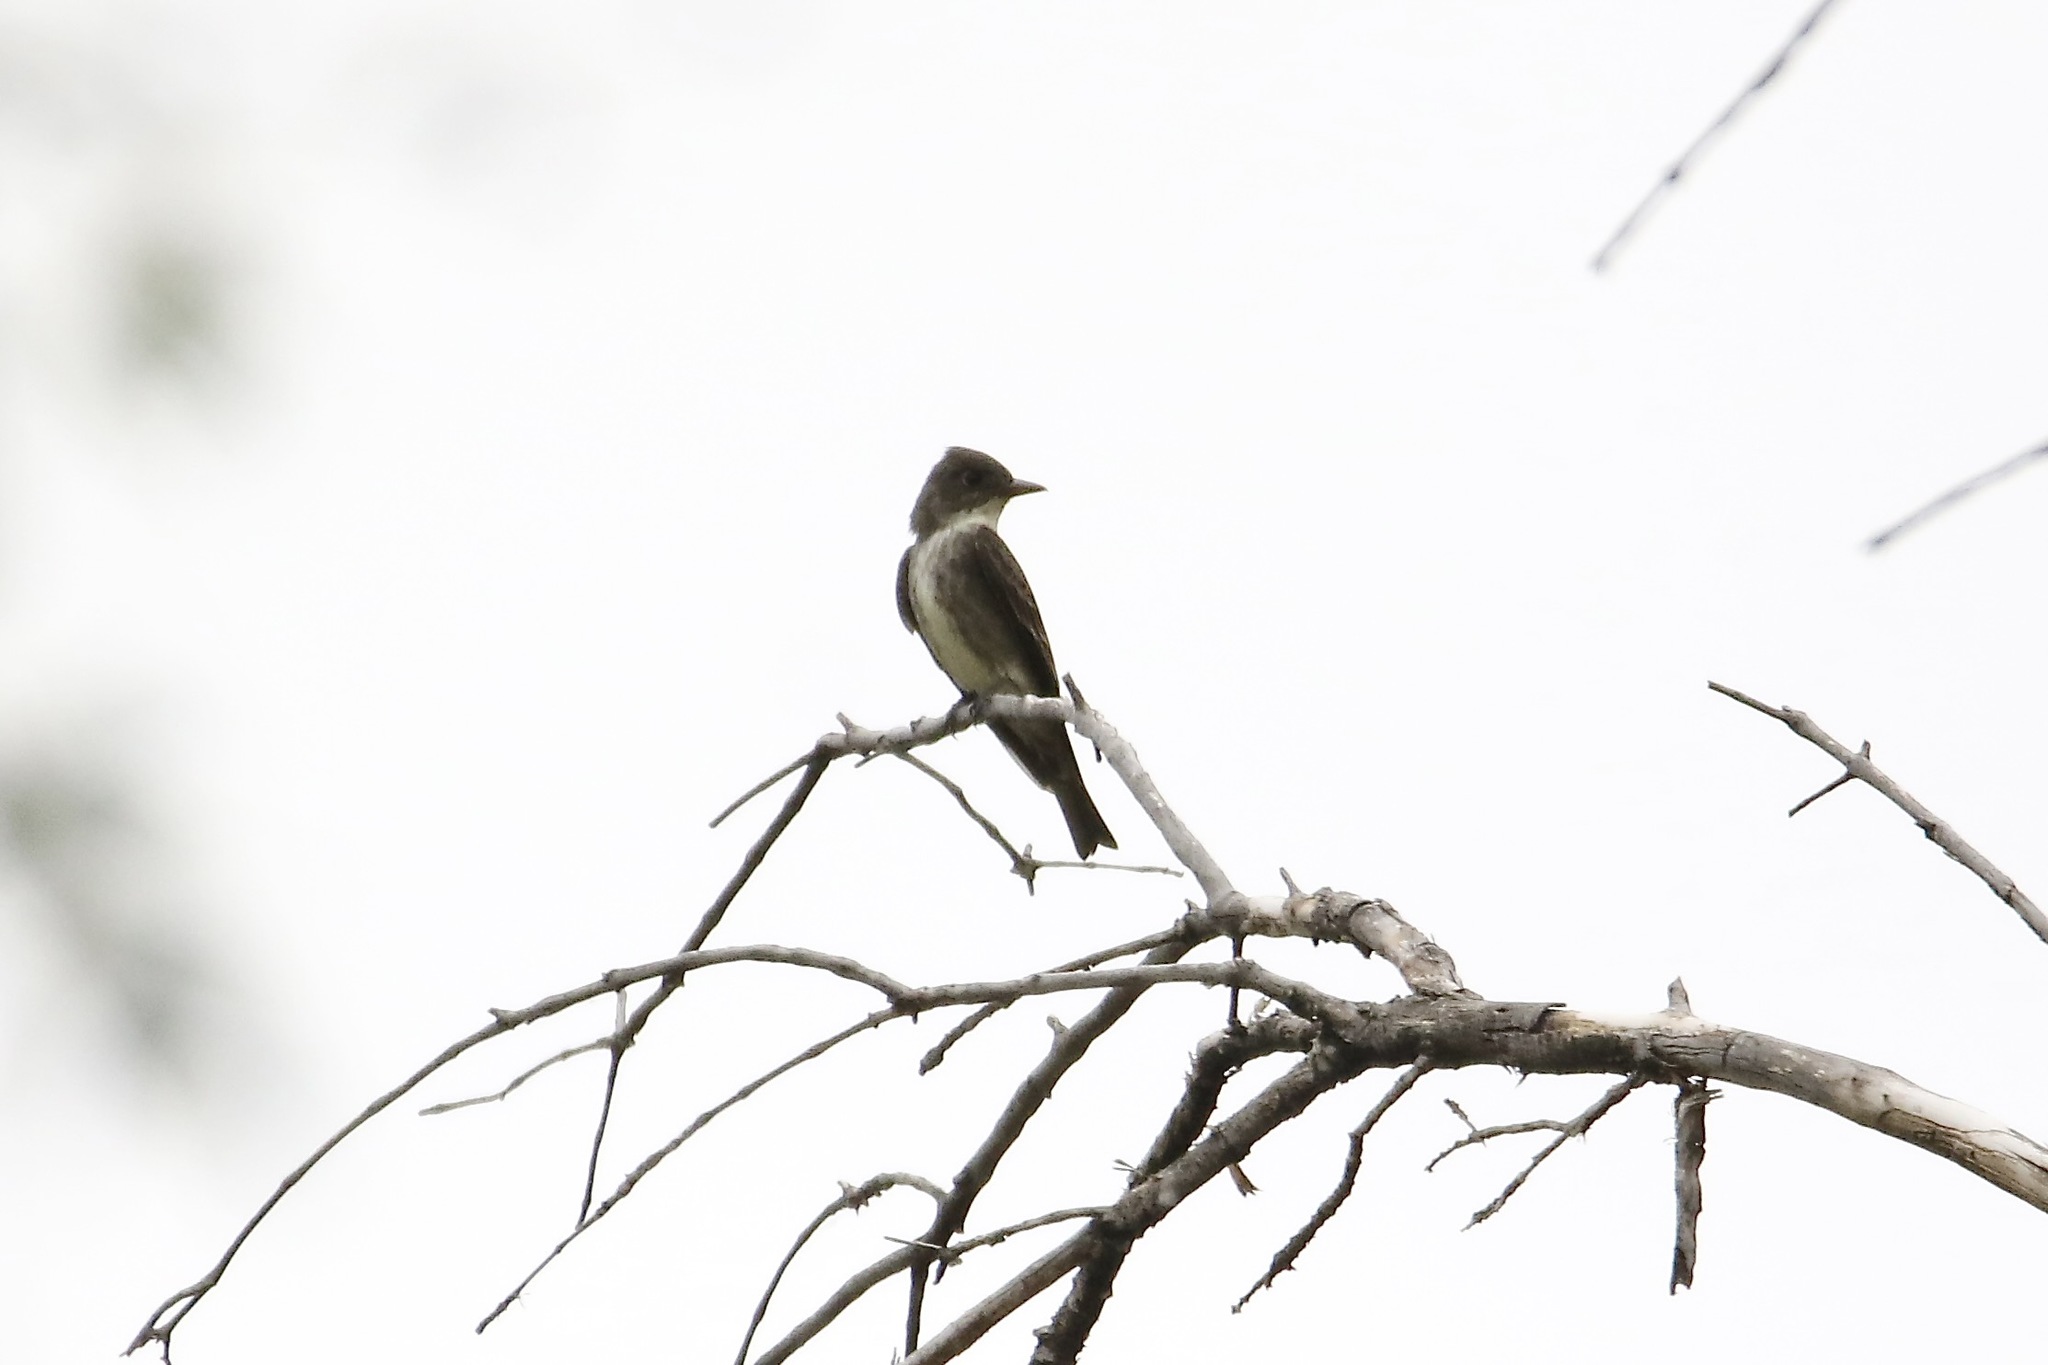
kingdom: Animalia
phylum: Chordata
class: Aves
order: Passeriformes
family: Tyrannidae
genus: Contopus
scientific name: Contopus cooperi
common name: Olive-sided flycatcher
